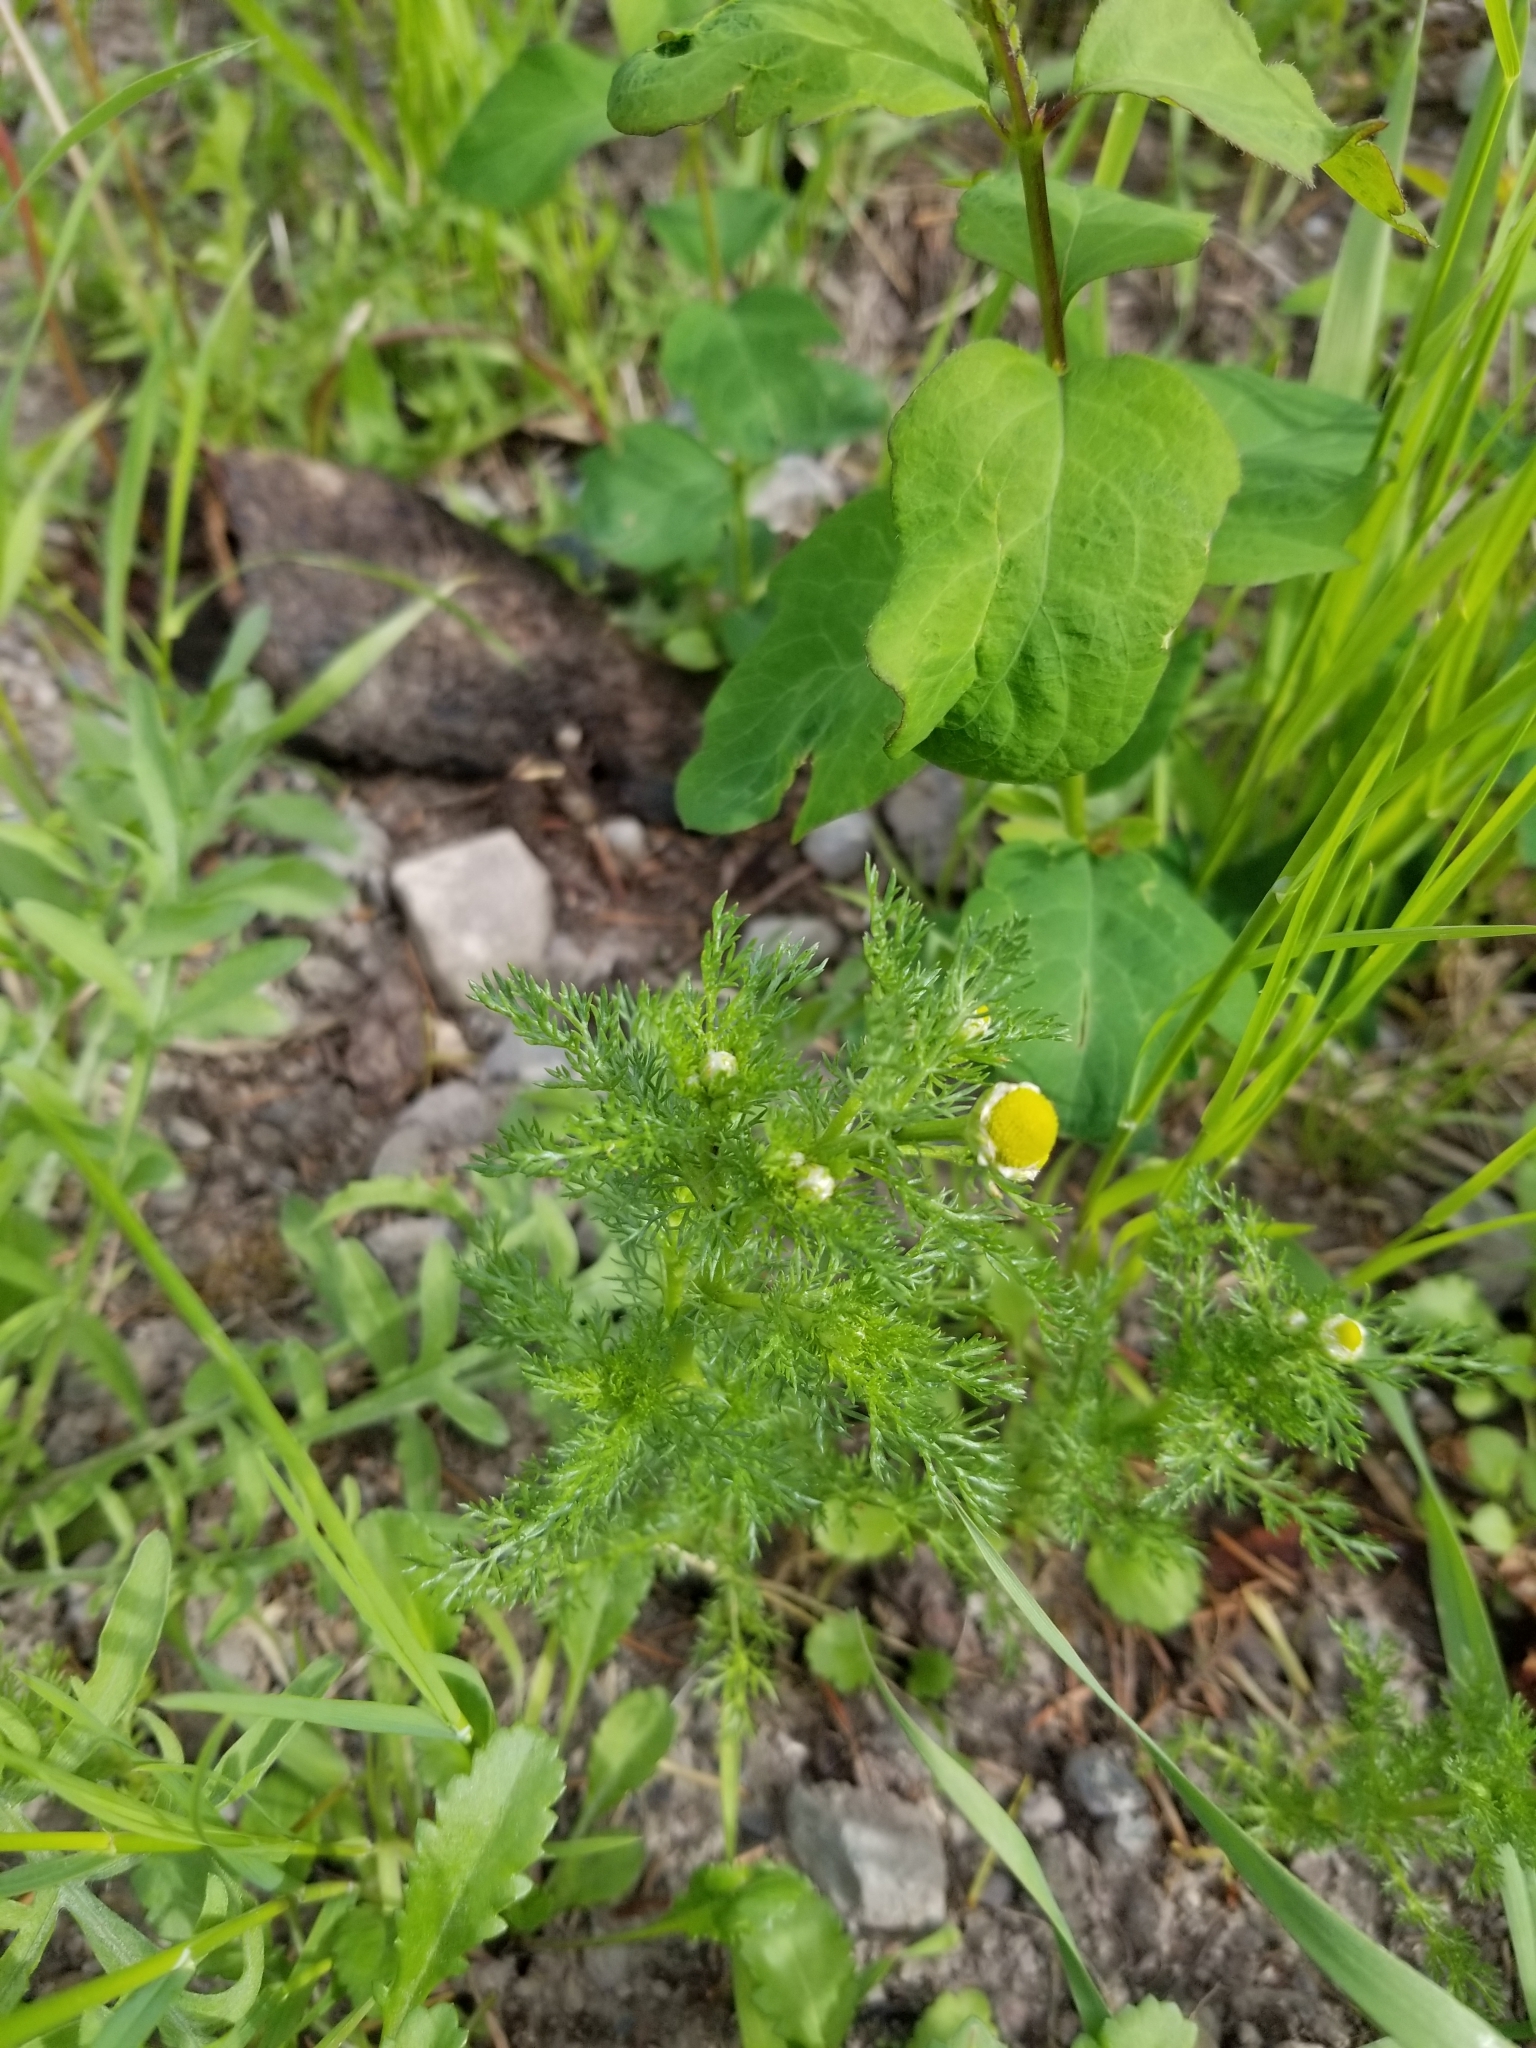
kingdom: Plantae
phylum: Tracheophyta
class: Magnoliopsida
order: Asterales
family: Asteraceae
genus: Matricaria
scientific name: Matricaria discoidea
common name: Disc mayweed
